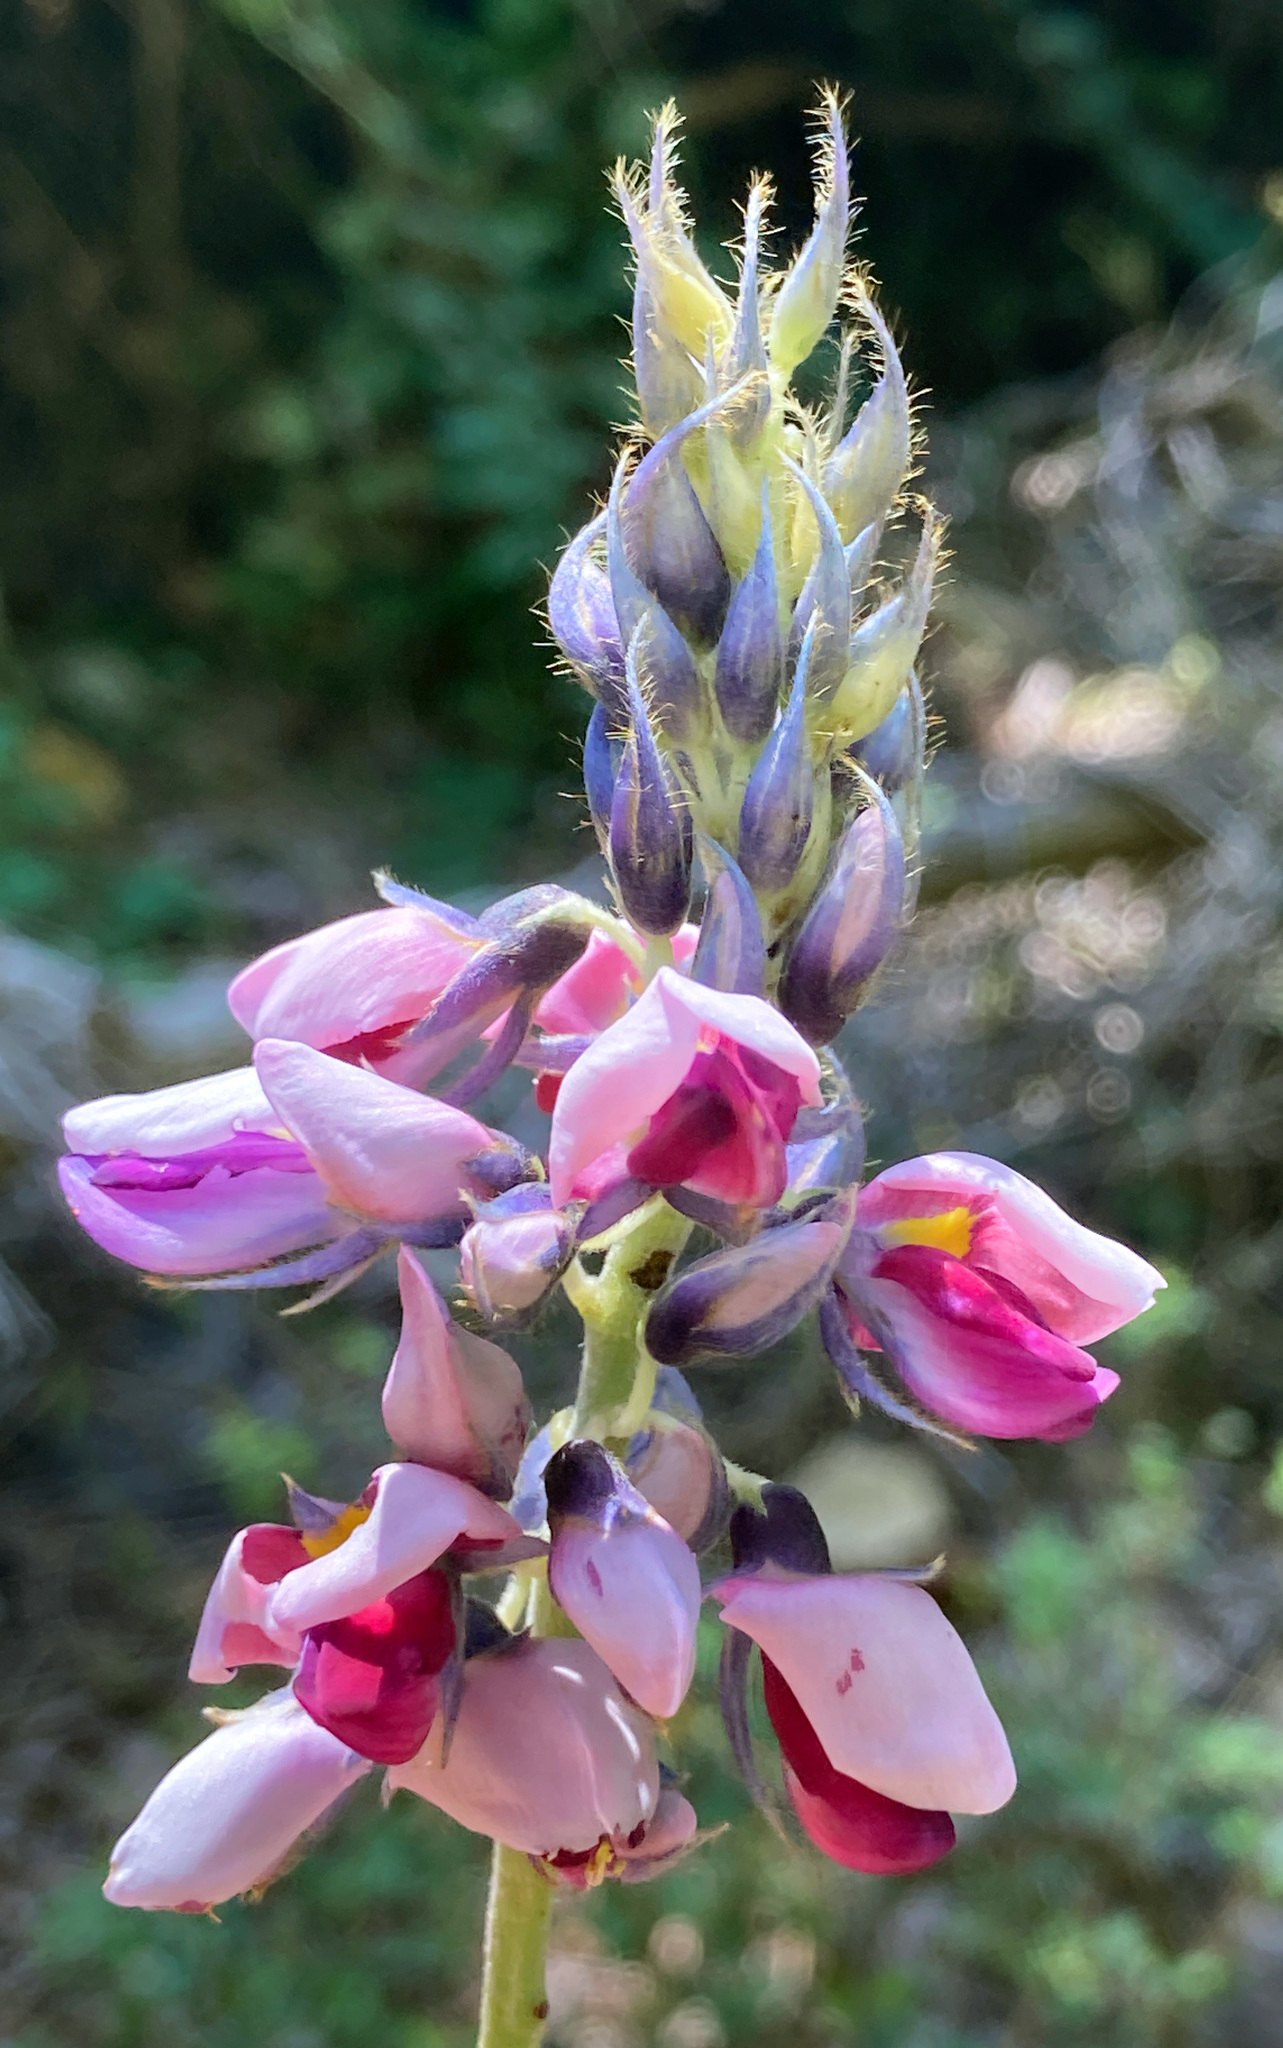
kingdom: Plantae
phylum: Tracheophyta
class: Magnoliopsida
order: Fabales
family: Fabaceae
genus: Pueraria
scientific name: Pueraria montana
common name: Kudzu
